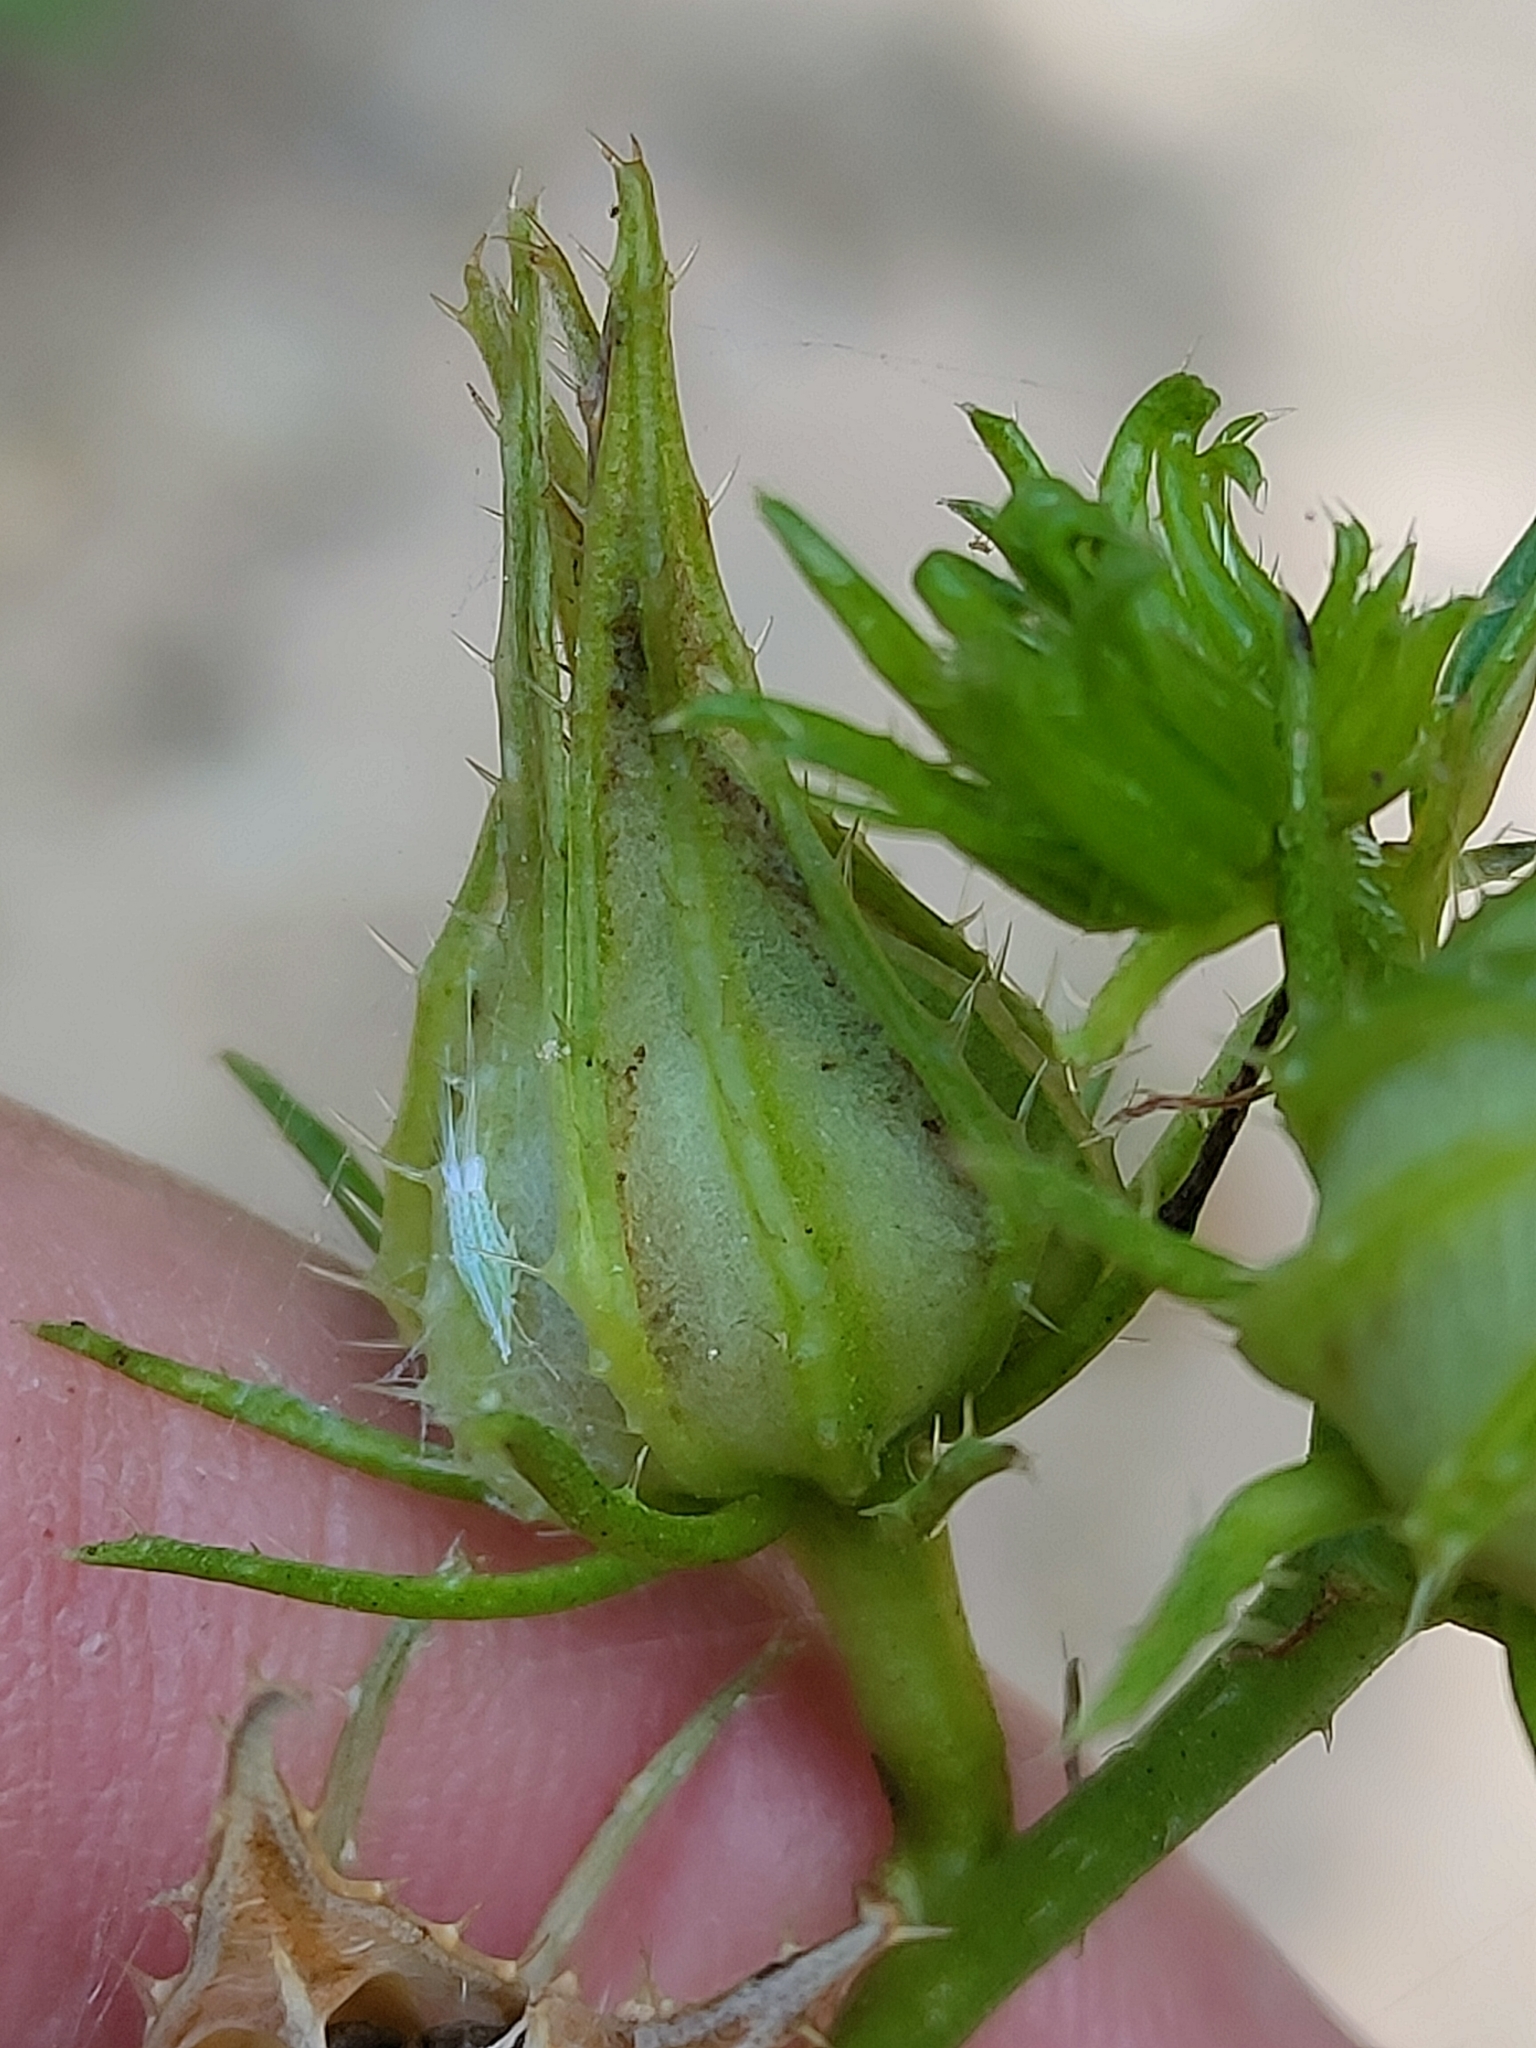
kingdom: Plantae
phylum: Tracheophyta
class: Magnoliopsida
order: Malvales
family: Malvaceae
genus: Hibiscus
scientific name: Hibiscus meraukensis
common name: Bush hibiscus
